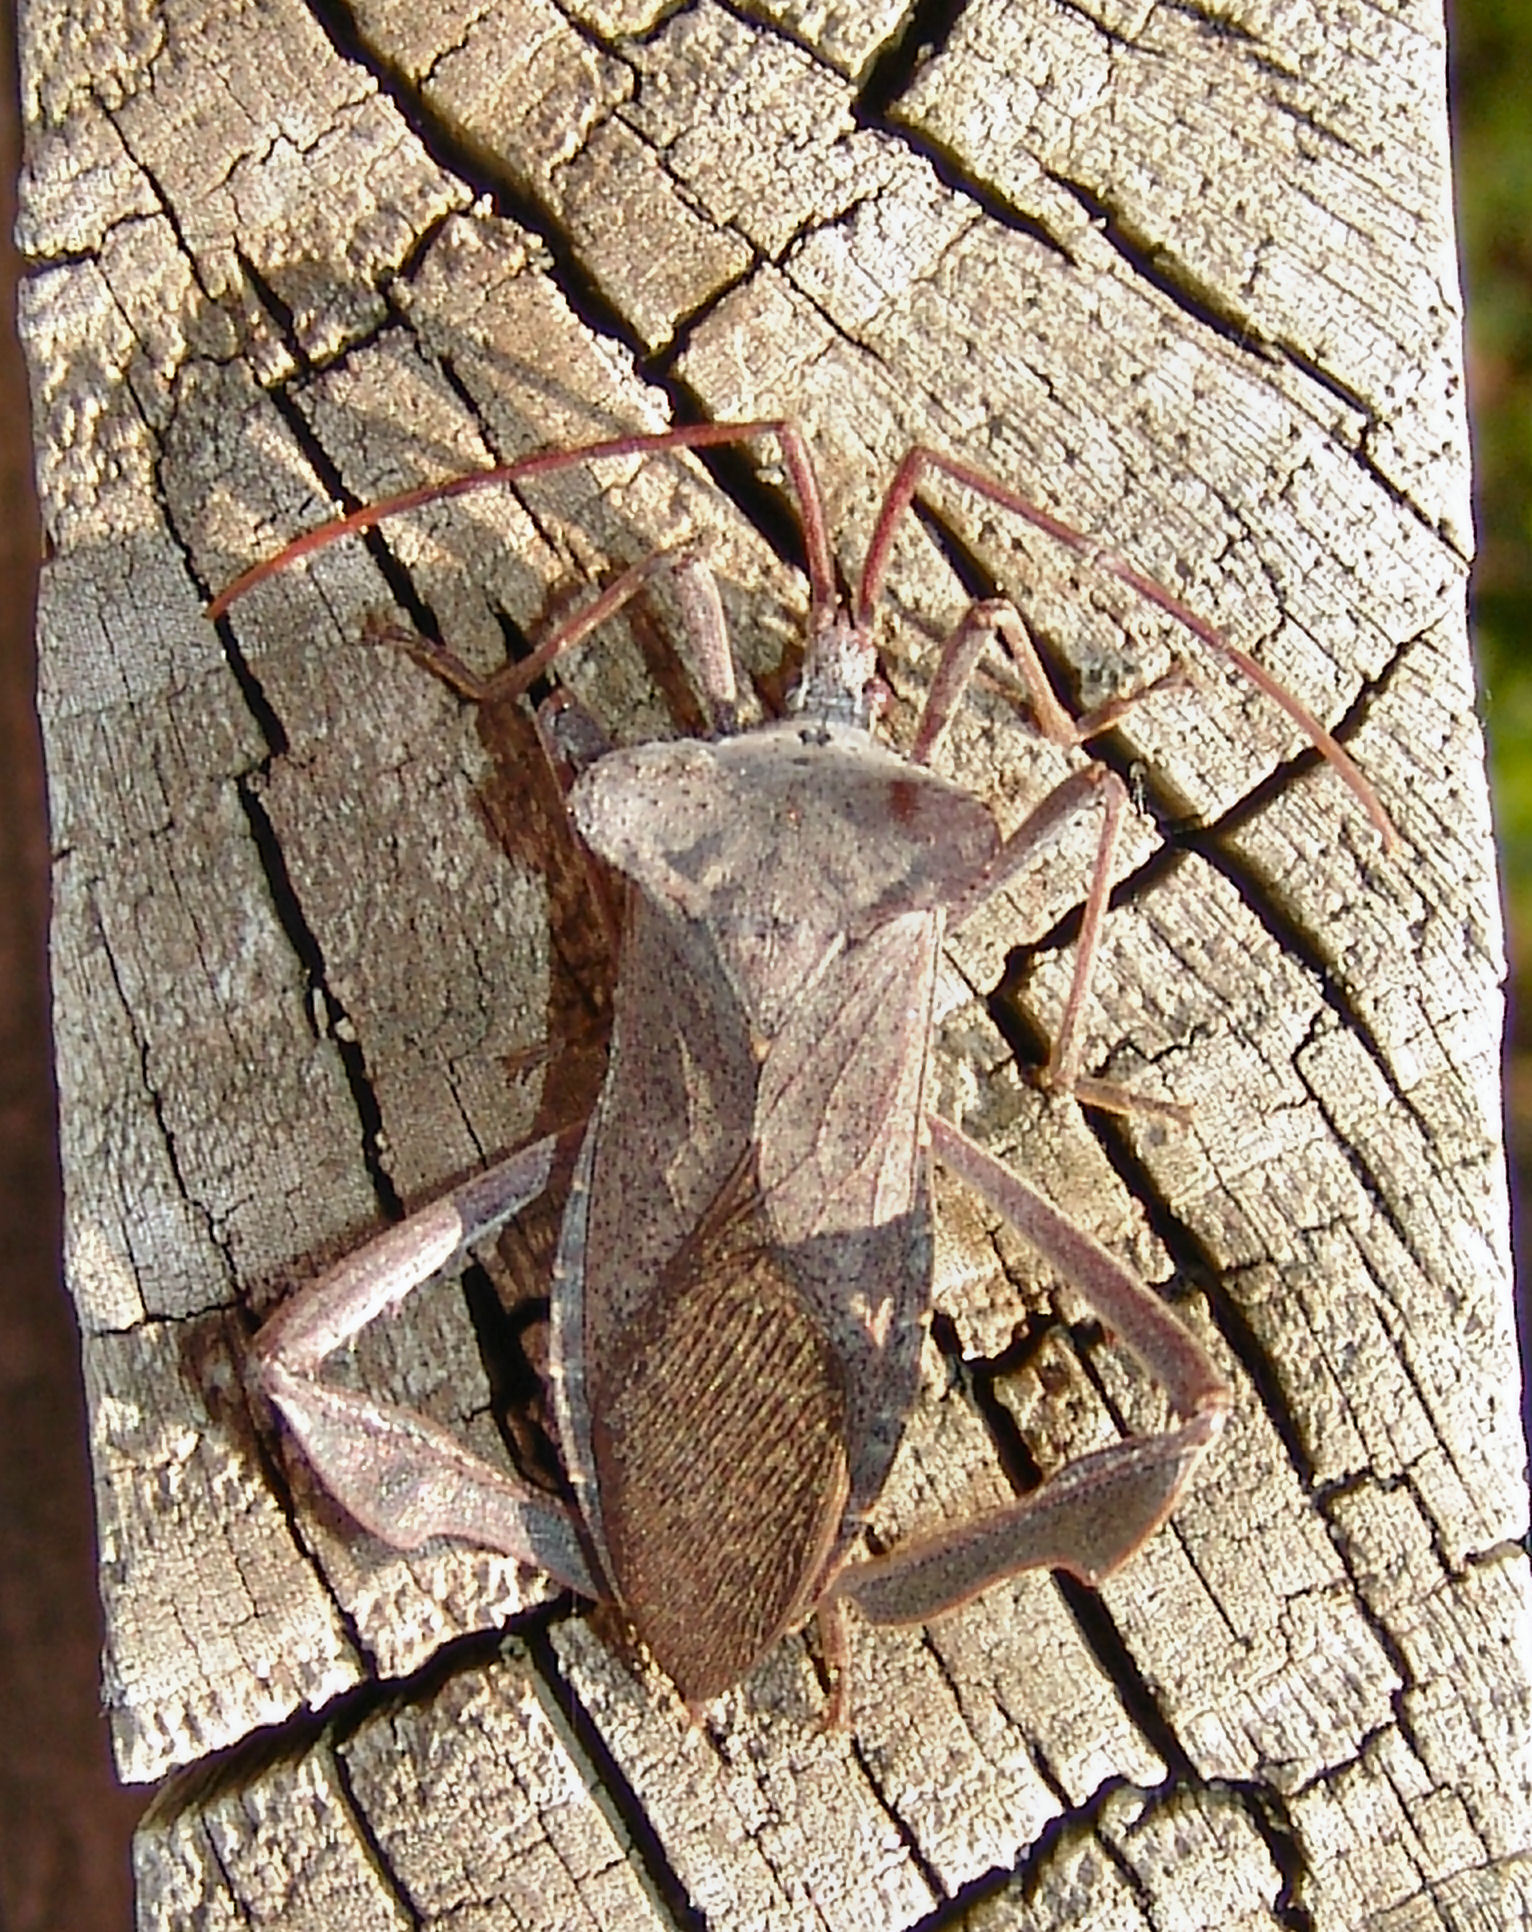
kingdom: Animalia
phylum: Arthropoda
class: Insecta
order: Hemiptera
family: Coreidae
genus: Acanthocephala
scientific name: Acanthocephala declivis
